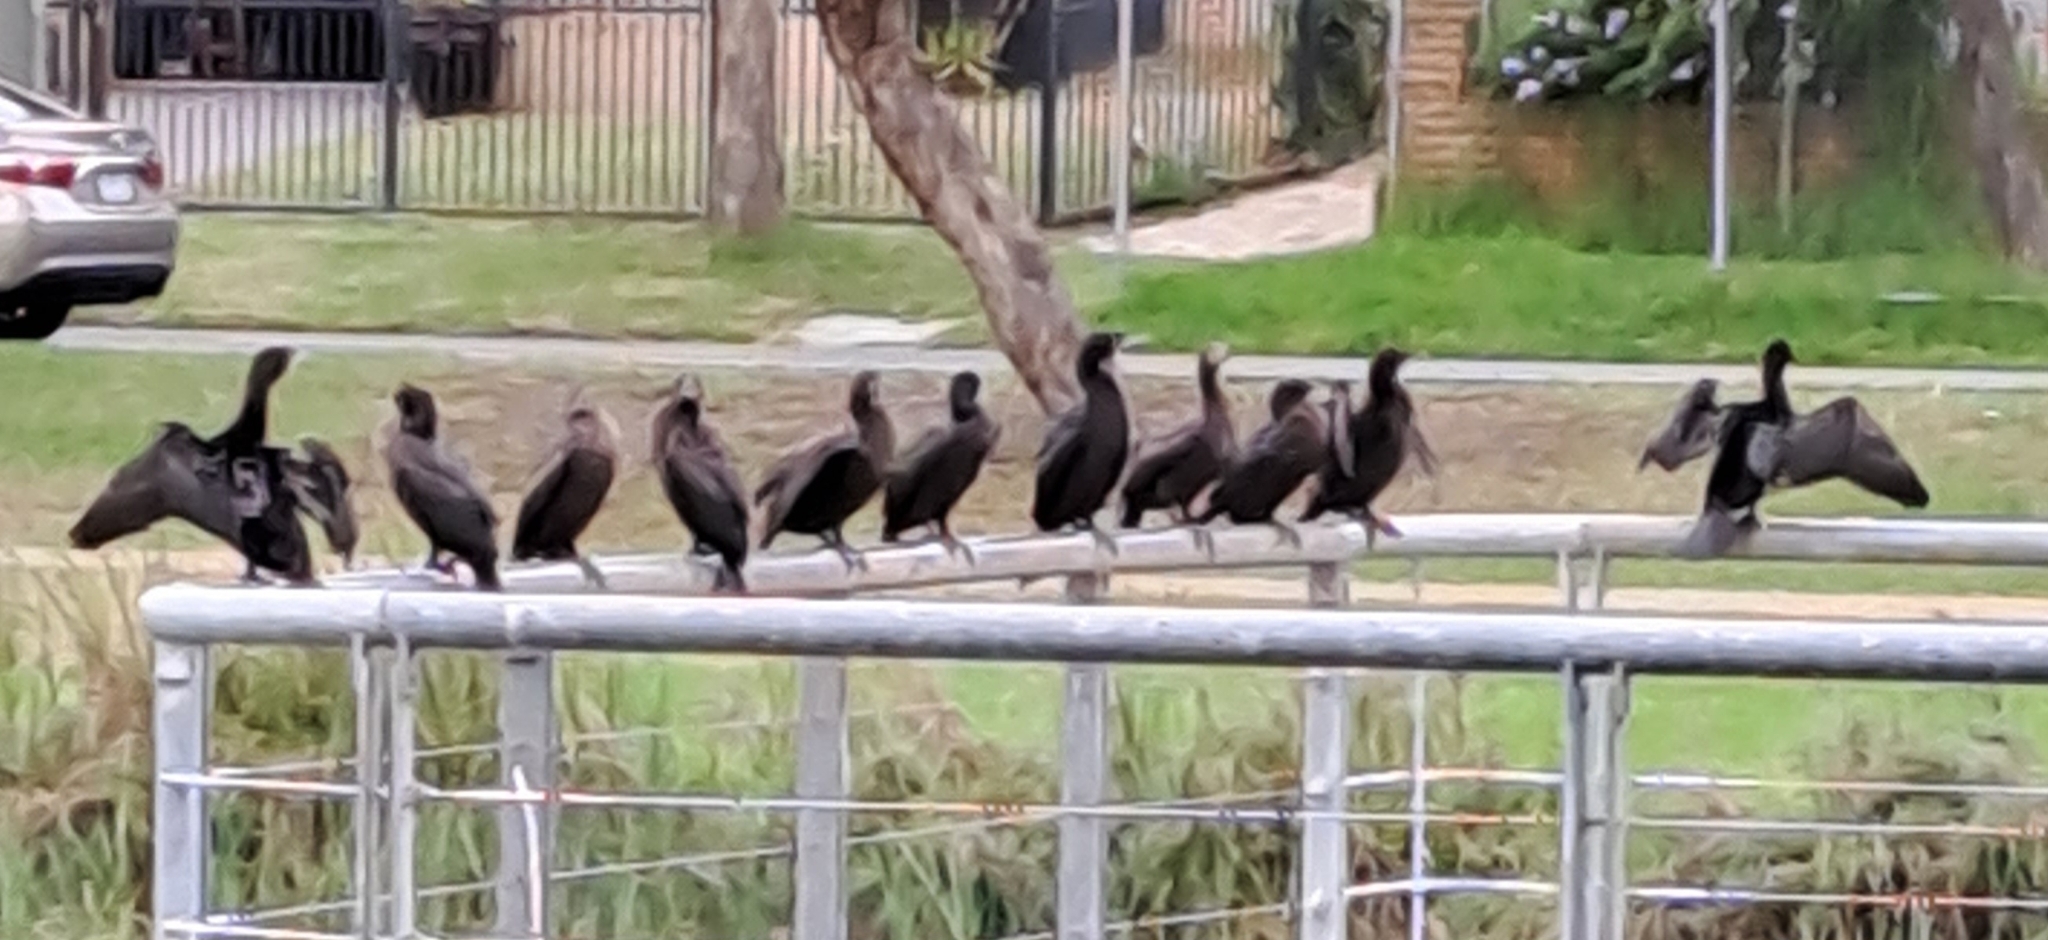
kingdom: Animalia
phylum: Chordata
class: Aves
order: Suliformes
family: Phalacrocoracidae
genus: Phalacrocorax
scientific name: Phalacrocorax sulcirostris
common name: Little black cormorant
